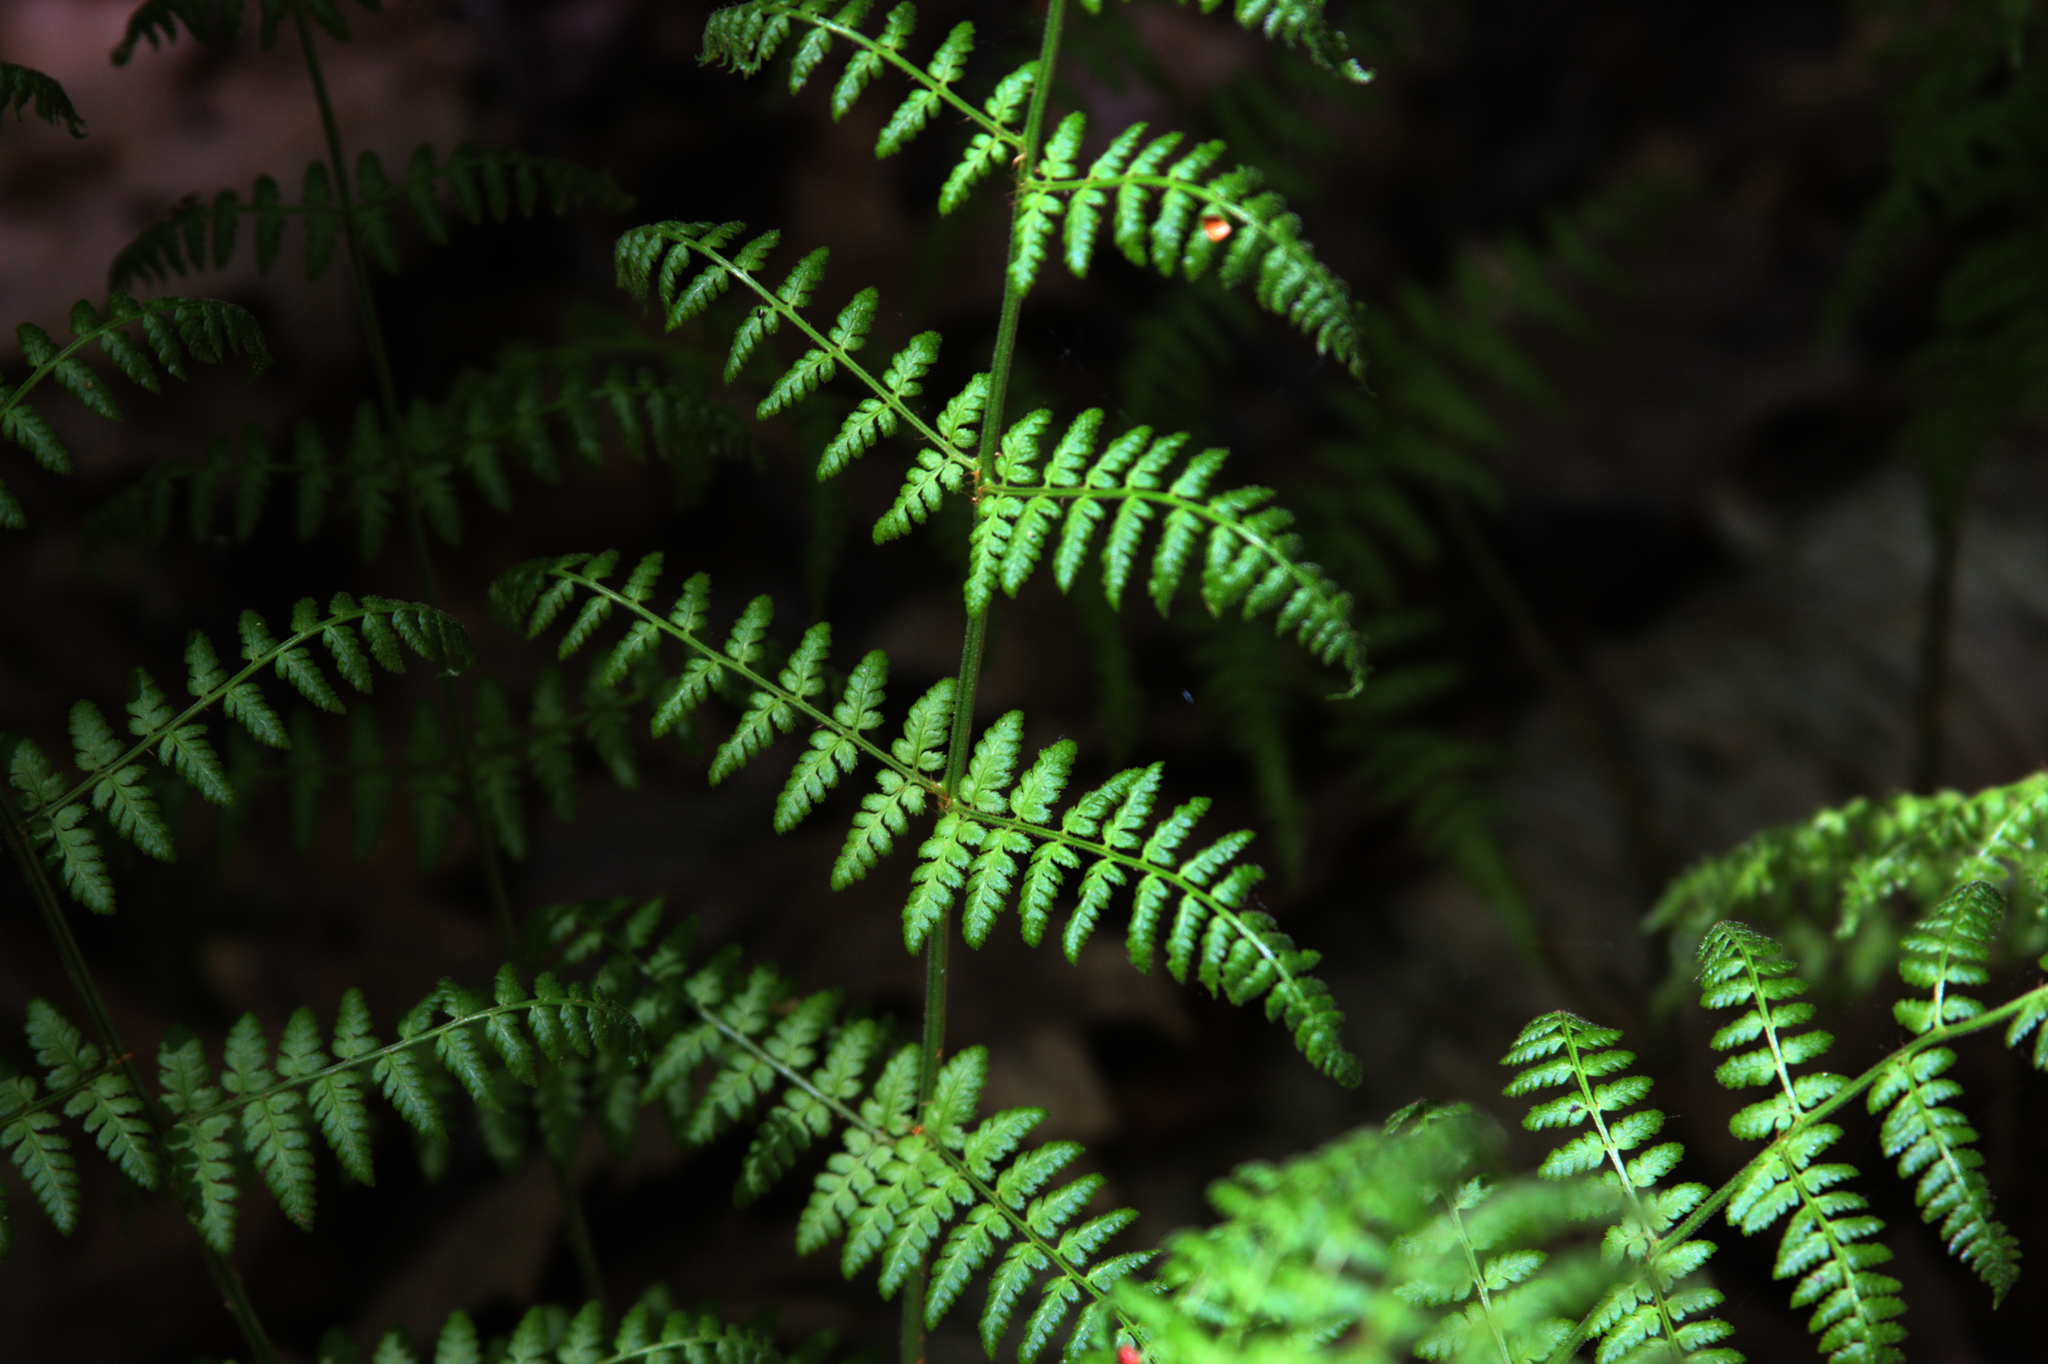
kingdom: Plantae
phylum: Tracheophyta
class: Polypodiopsida
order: Polypodiales
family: Dryopteridaceae
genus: Dryopteris
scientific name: Dryopteris intermedia
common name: Evergreen wood fern
